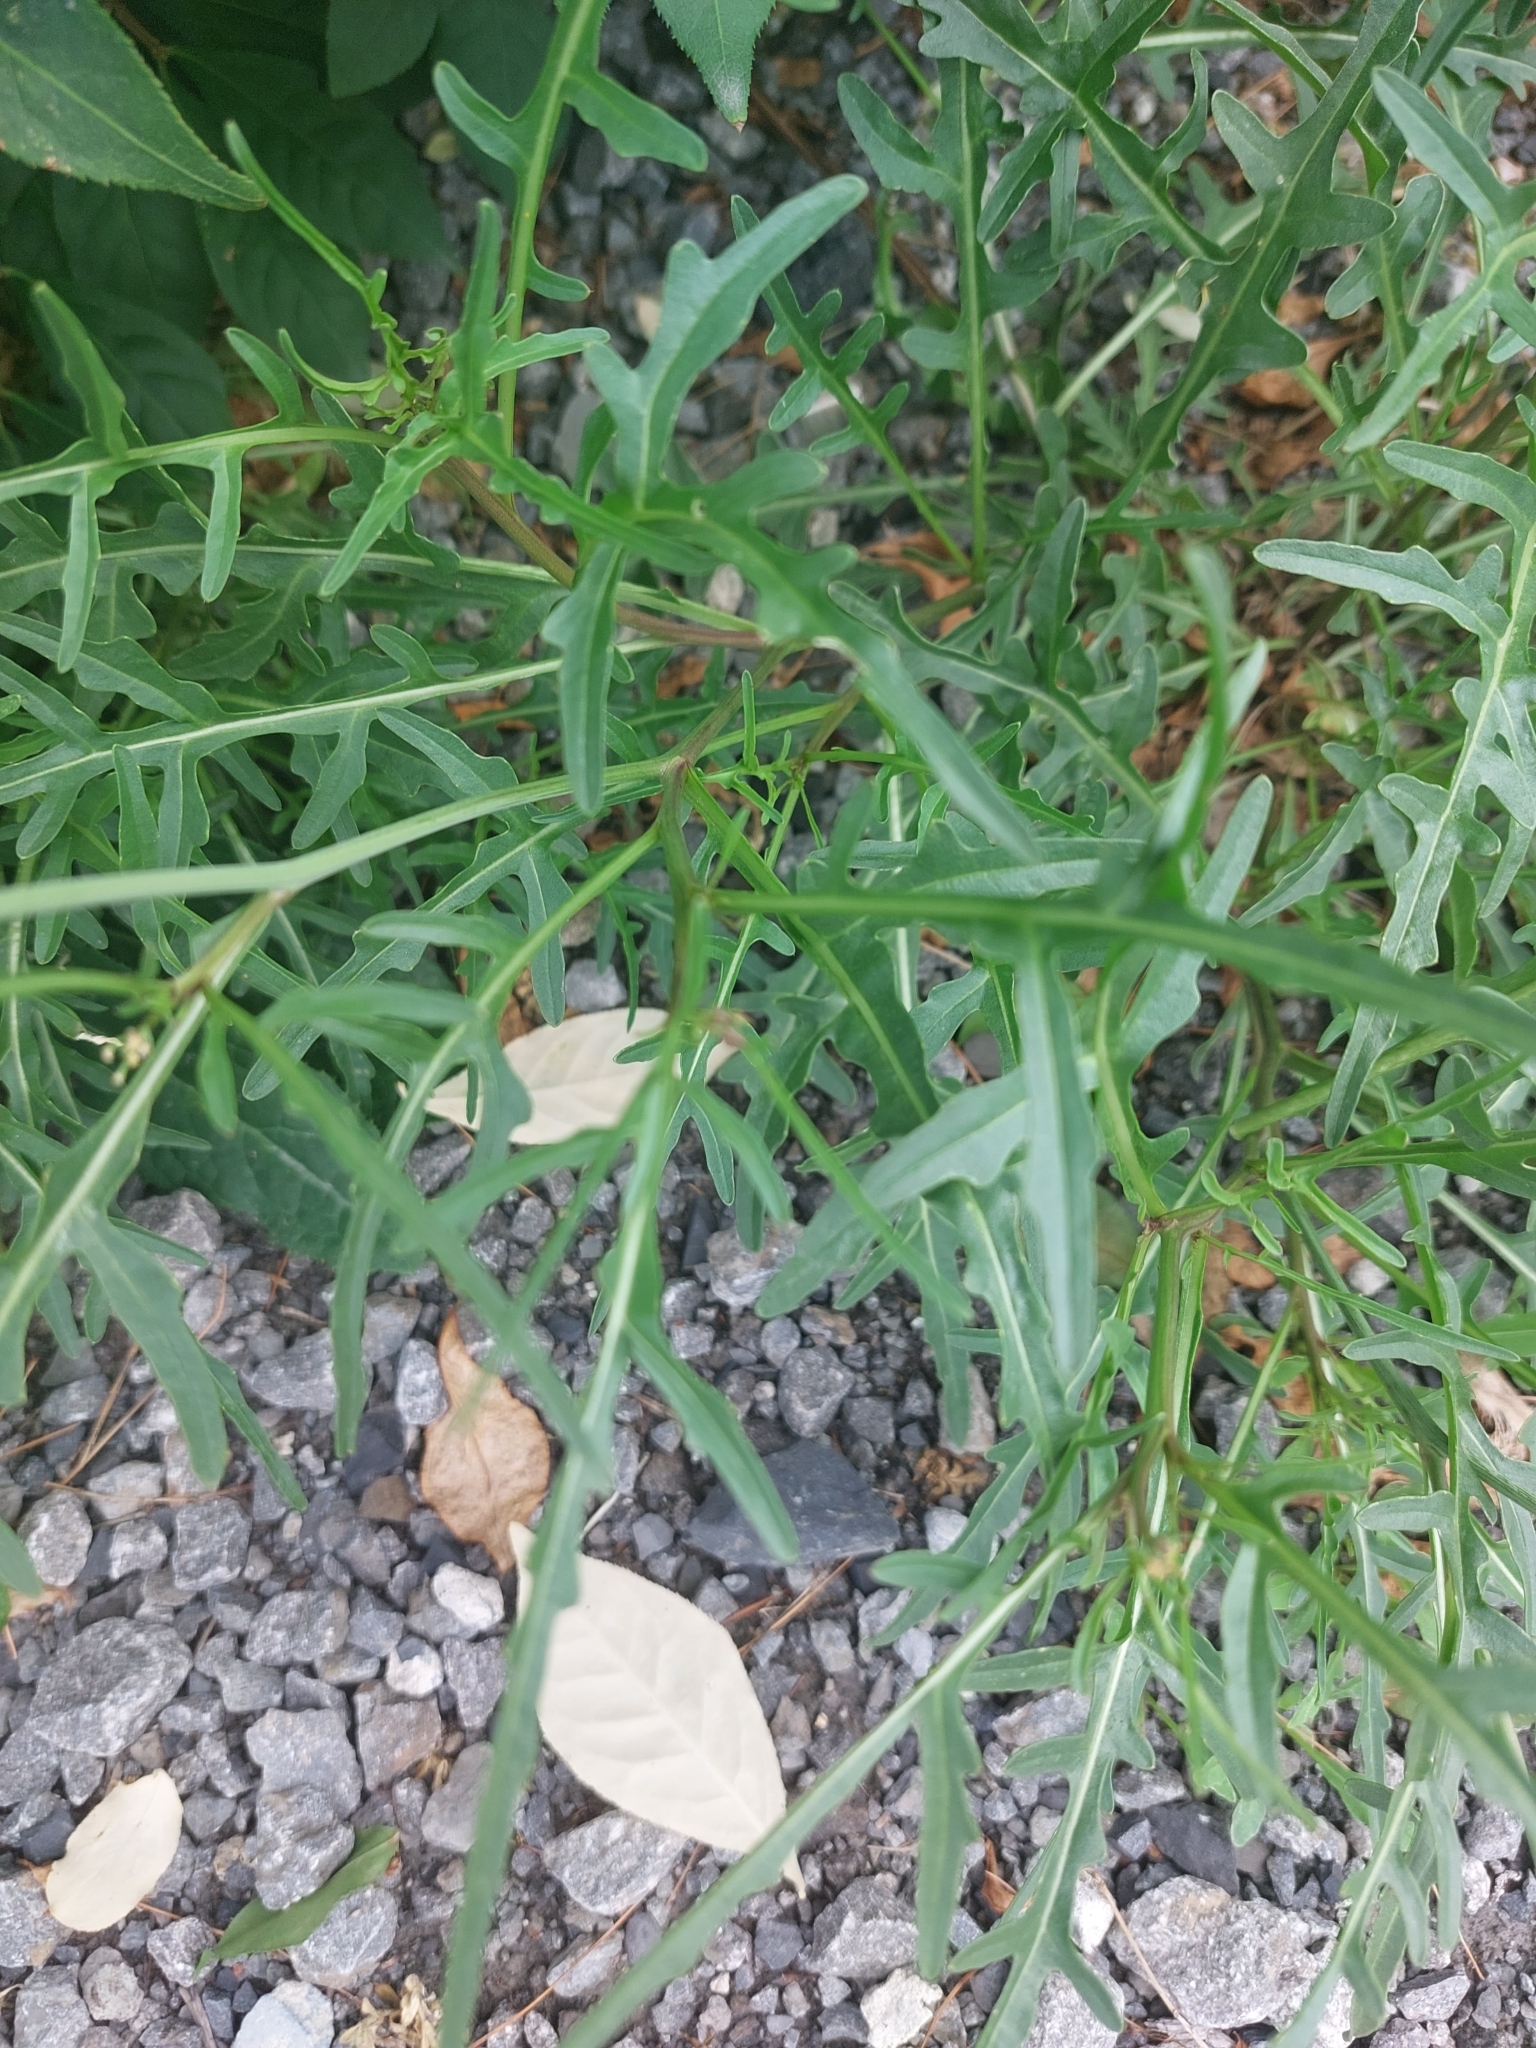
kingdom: Plantae
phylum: Tracheophyta
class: Magnoliopsida
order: Brassicales
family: Brassicaceae
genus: Diplotaxis
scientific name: Diplotaxis tenuifolia
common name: Perennial wall-rocket
